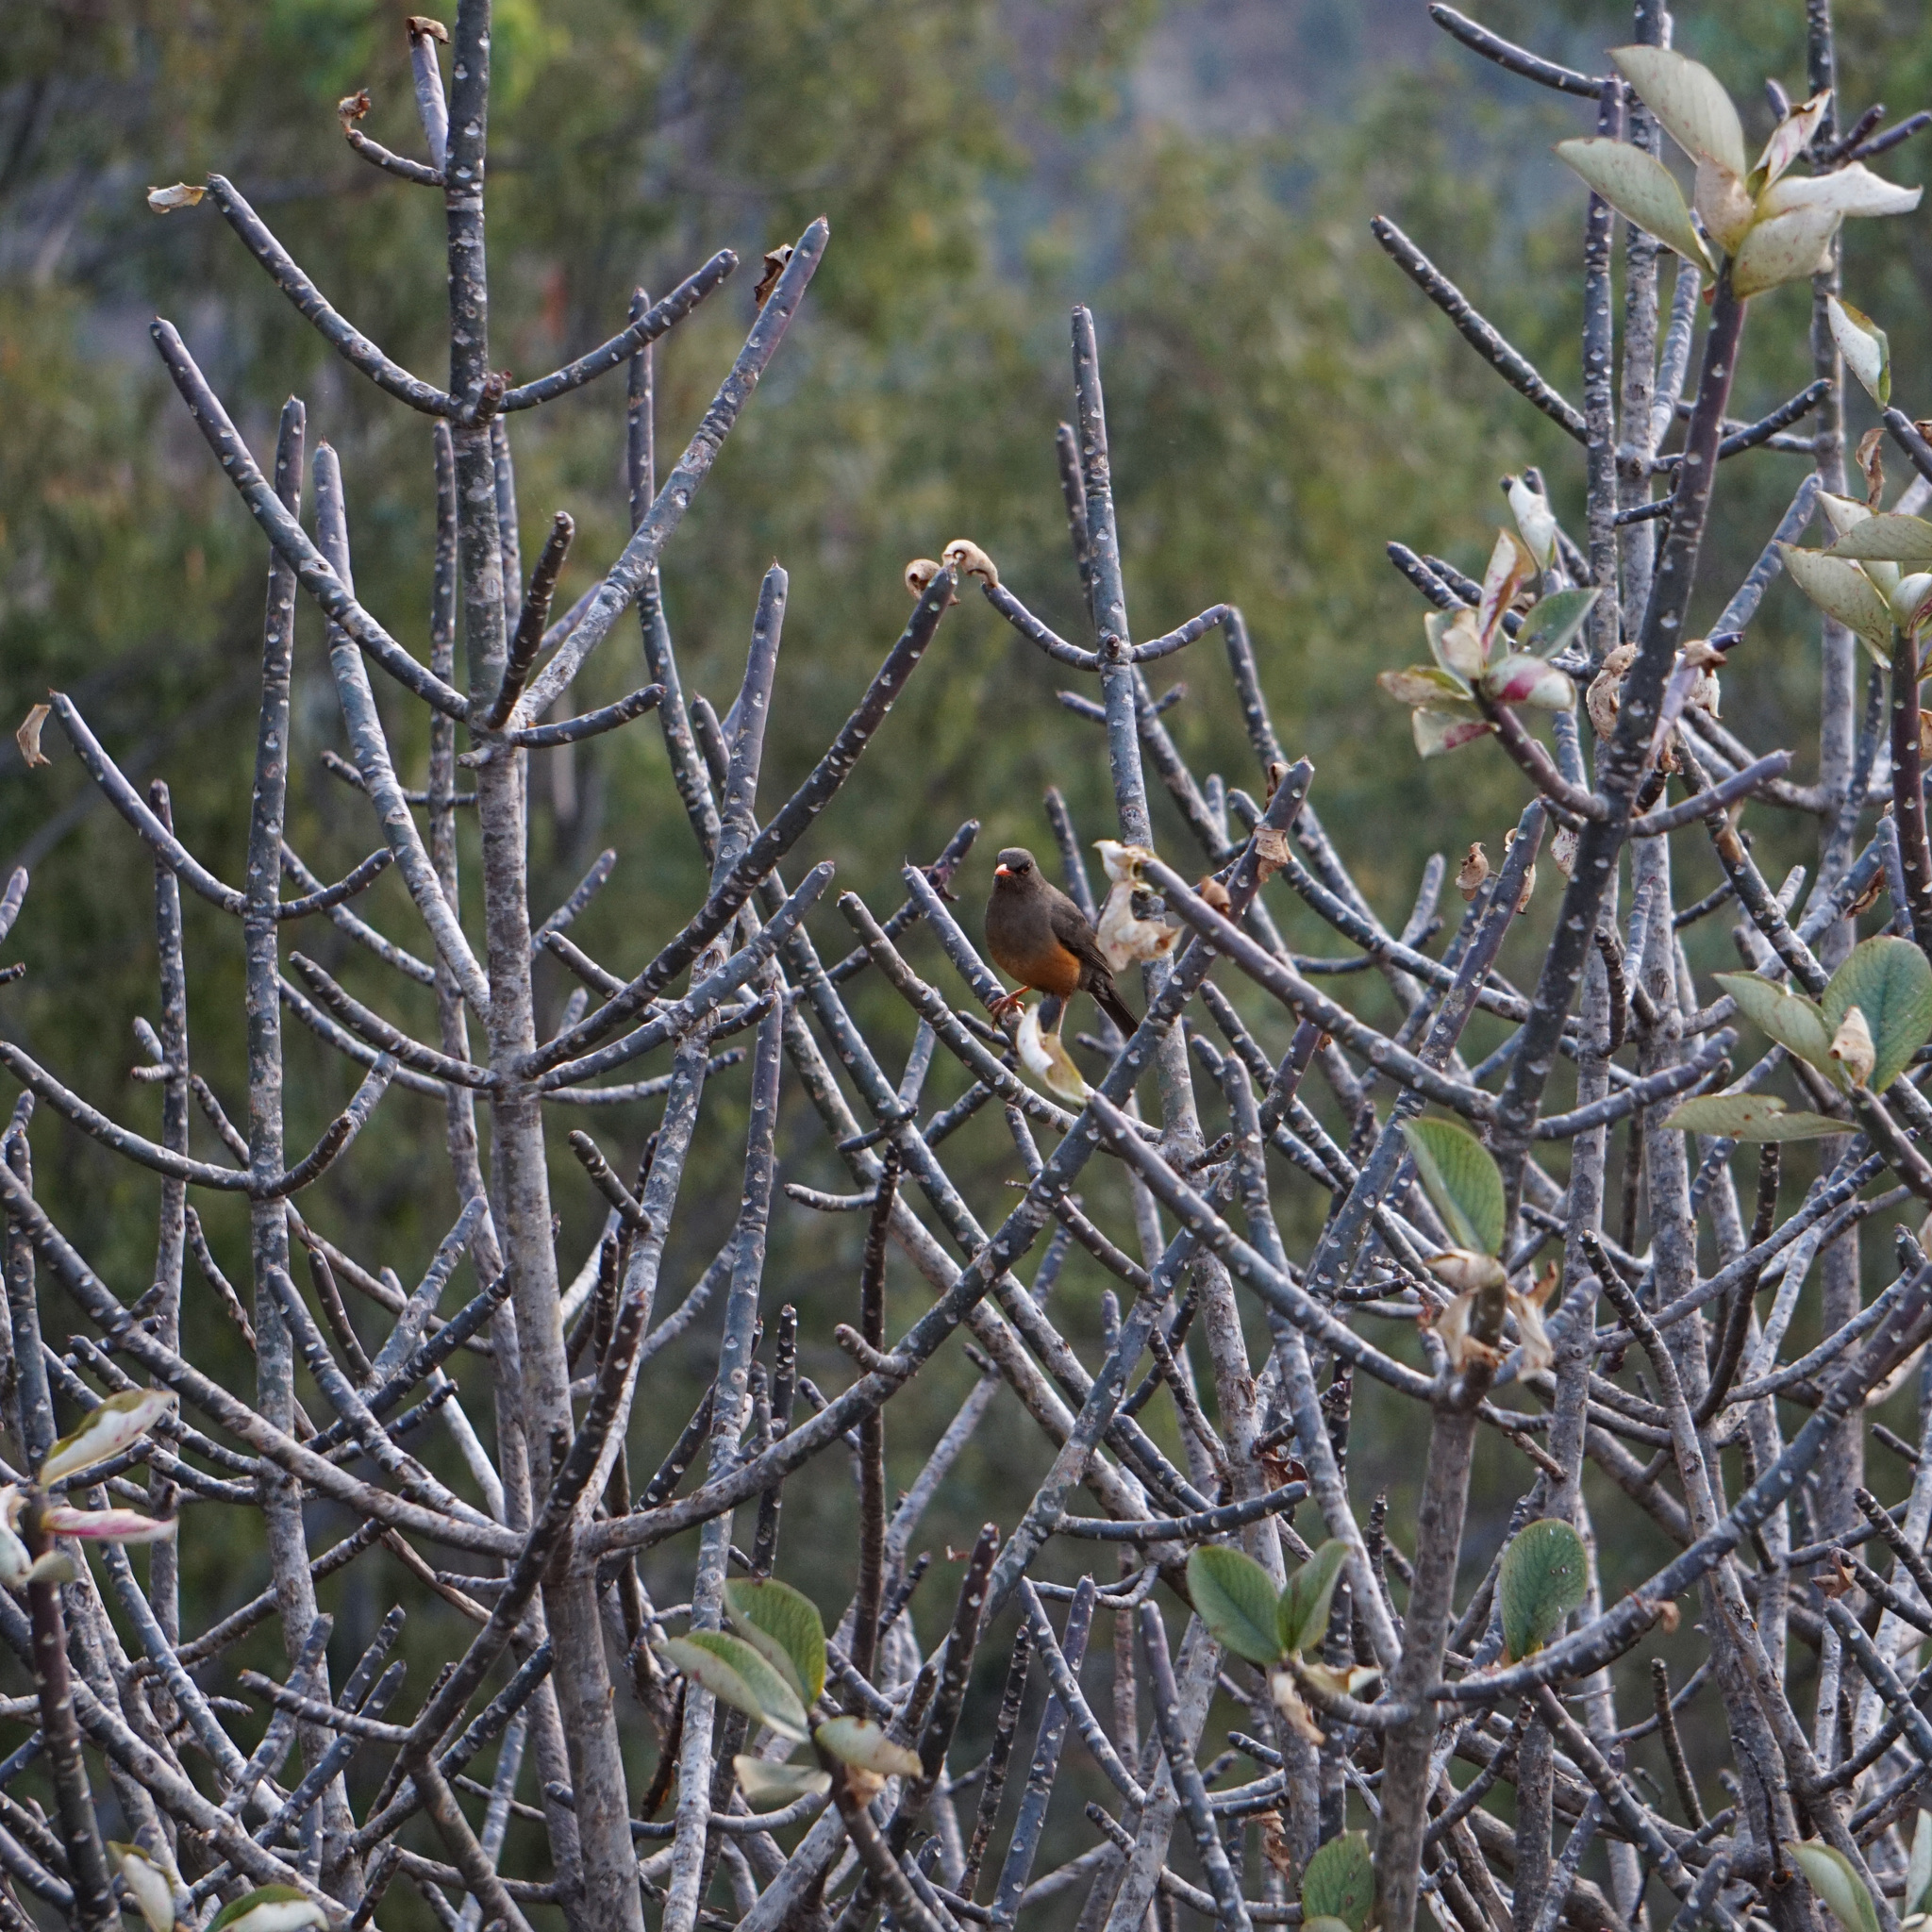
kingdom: Animalia
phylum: Chordata
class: Aves
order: Passeriformes
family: Turdidae
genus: Turdus
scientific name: Turdus abyssinicus
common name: Abyssinian thrush
